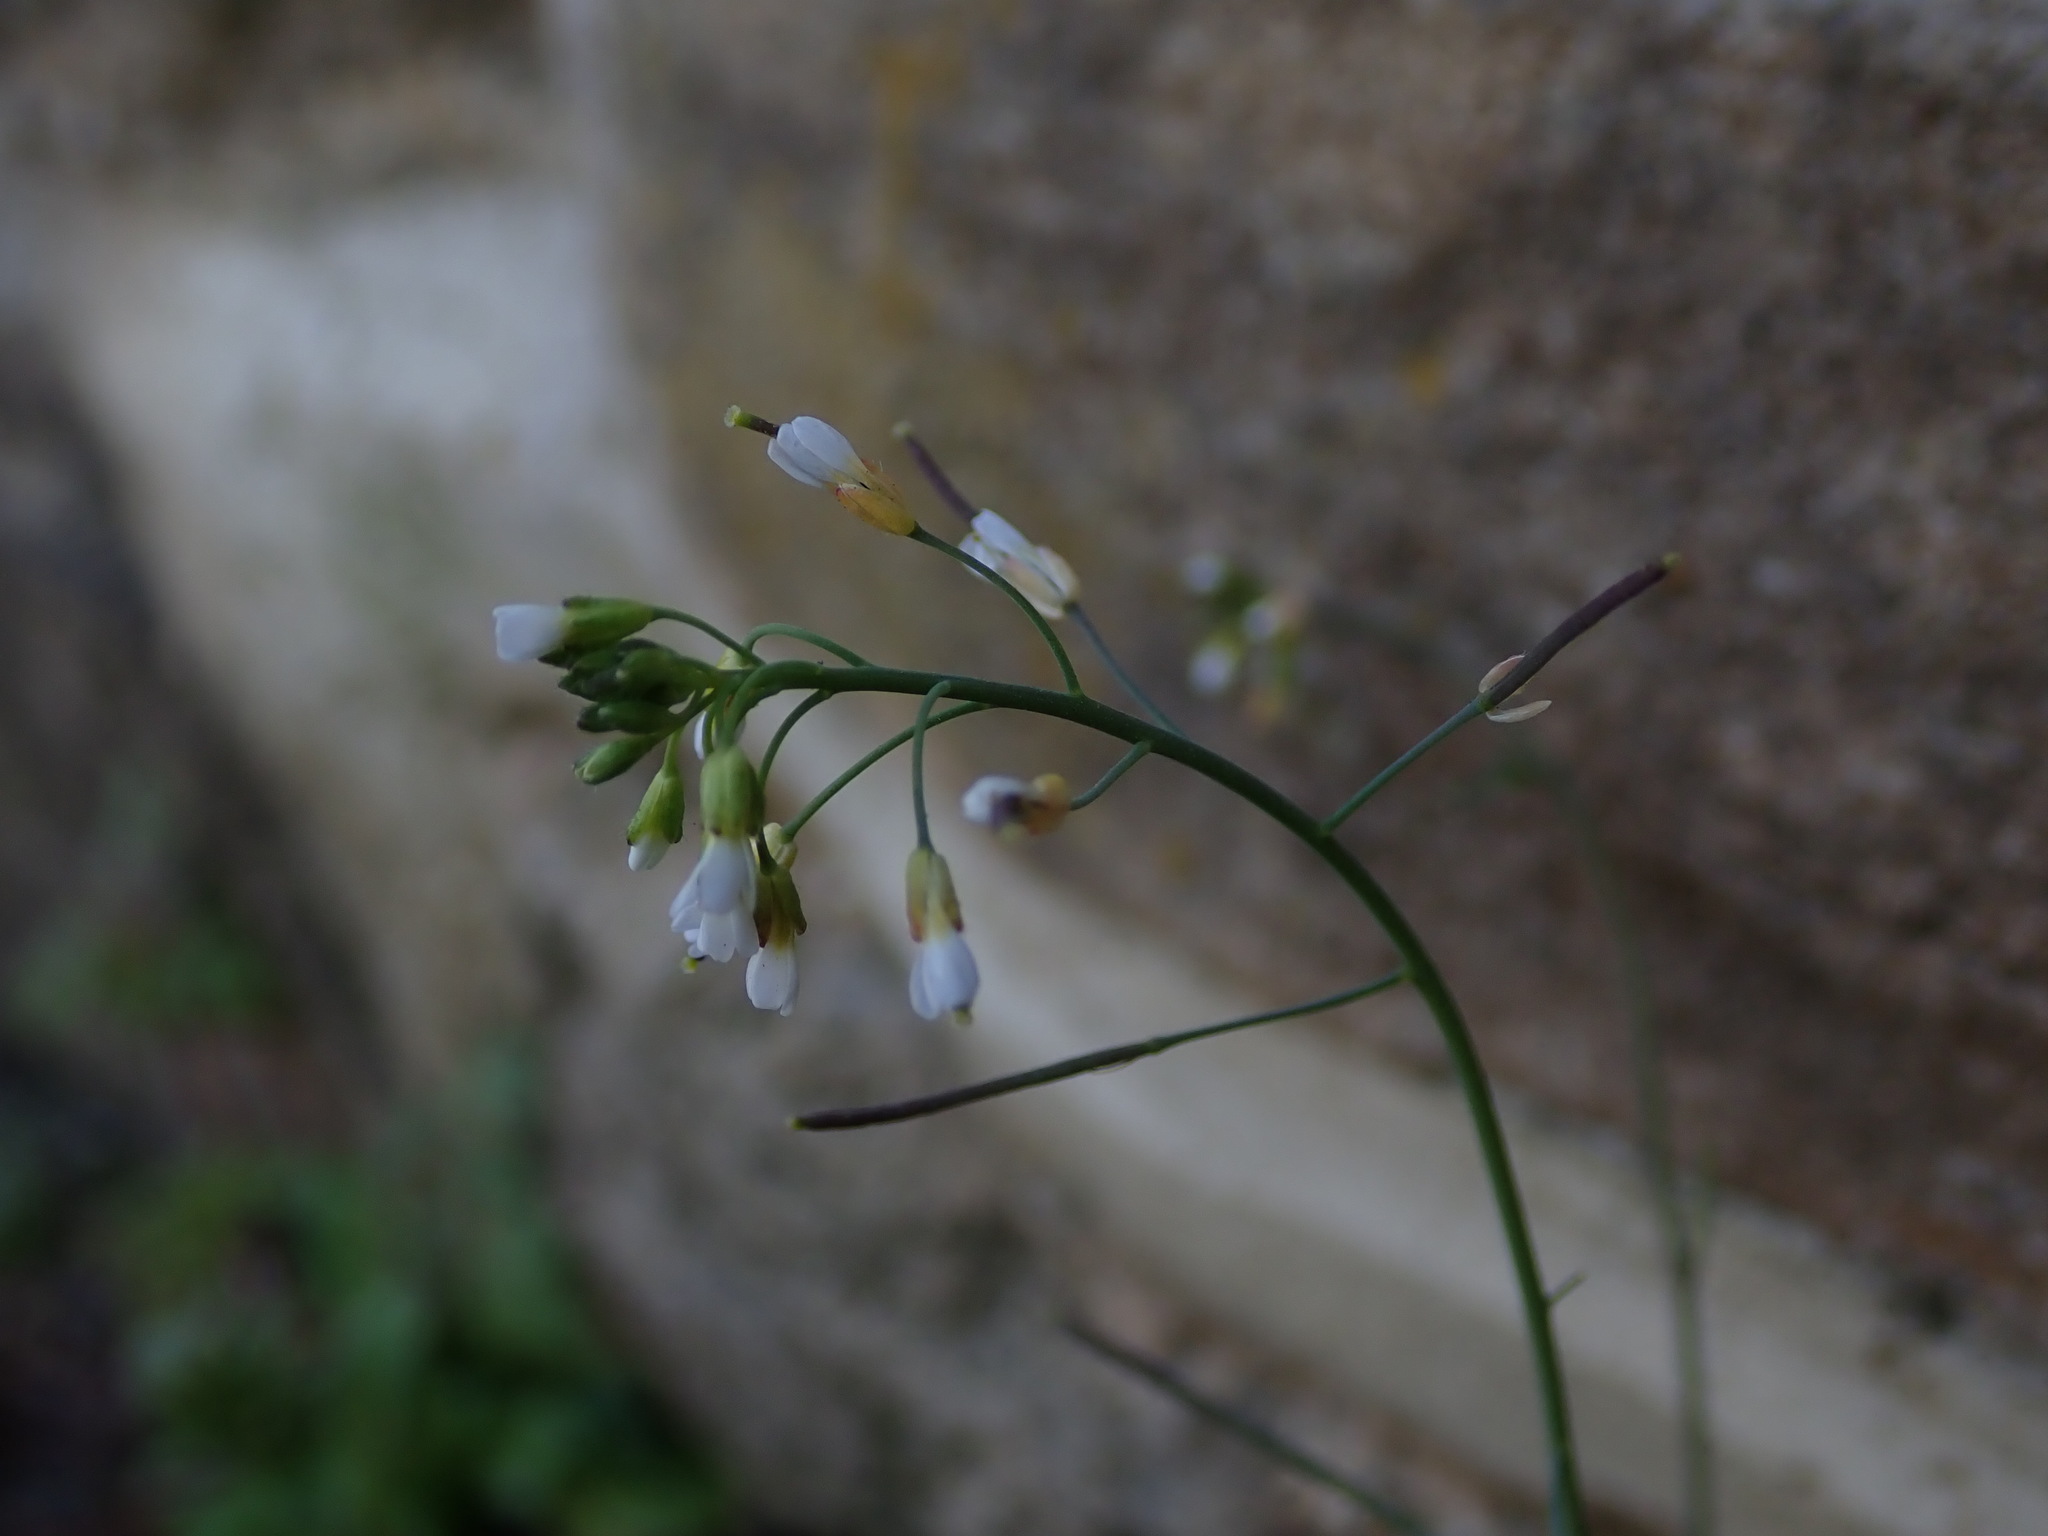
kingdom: Plantae
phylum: Tracheophyta
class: Magnoliopsida
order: Brassicales
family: Brassicaceae
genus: Arabidopsis
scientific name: Arabidopsis thaliana
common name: Thale cress
